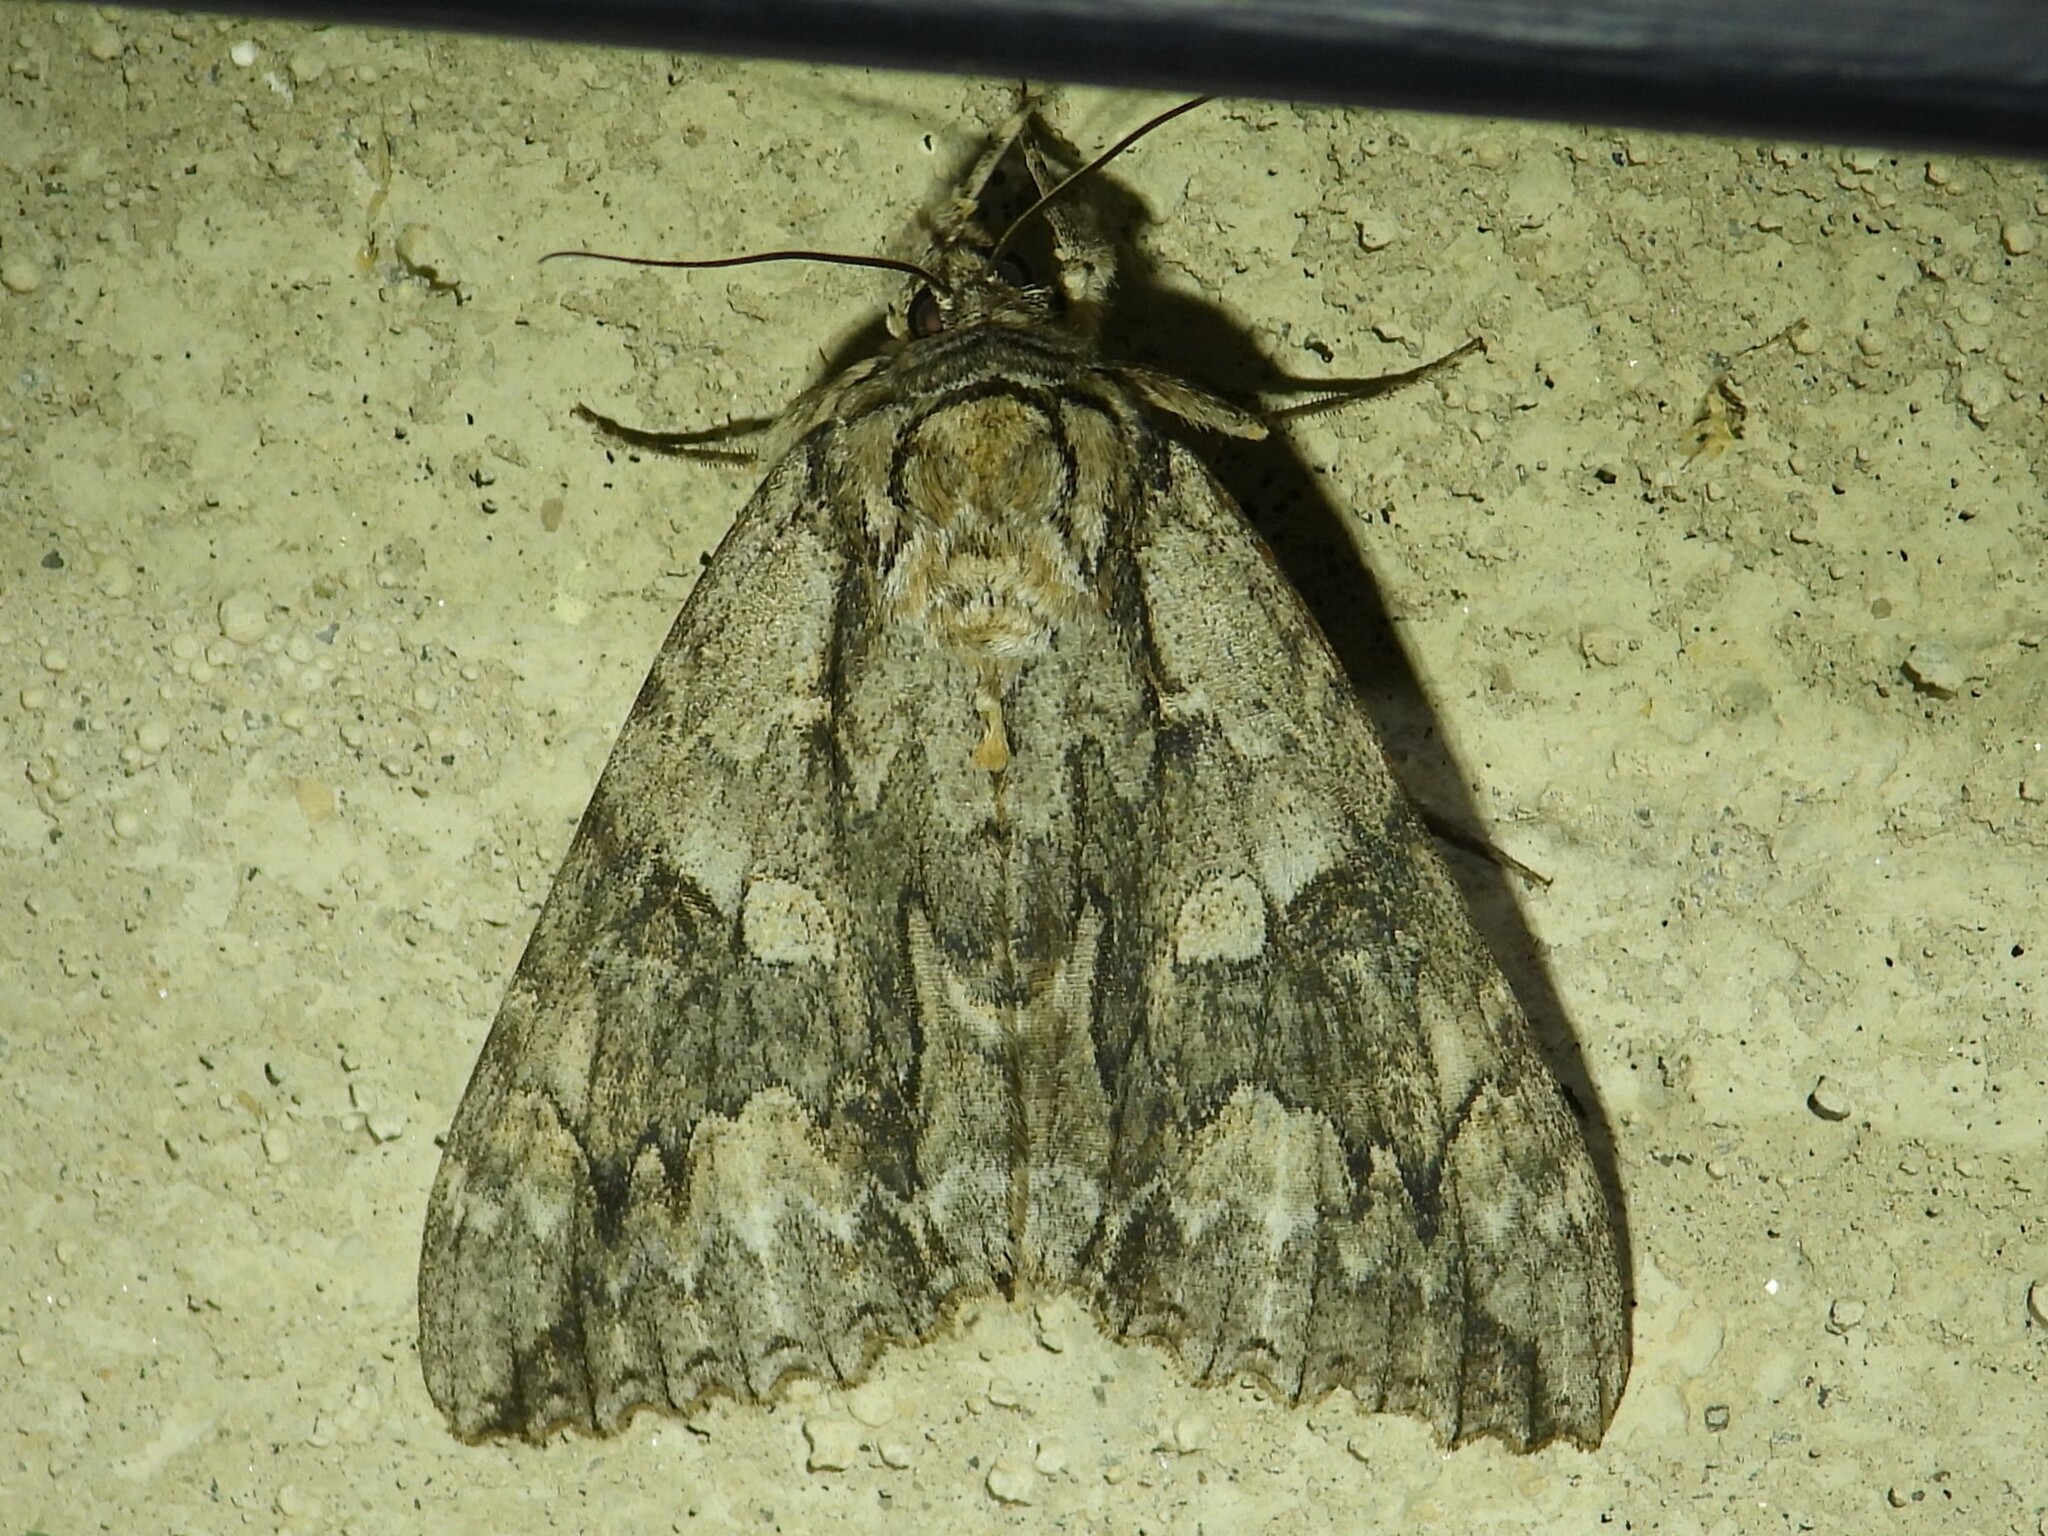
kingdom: Animalia
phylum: Arthropoda
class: Insecta
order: Lepidoptera
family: Erebidae
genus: Catocala
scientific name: Catocala parta
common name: Mother underwing
